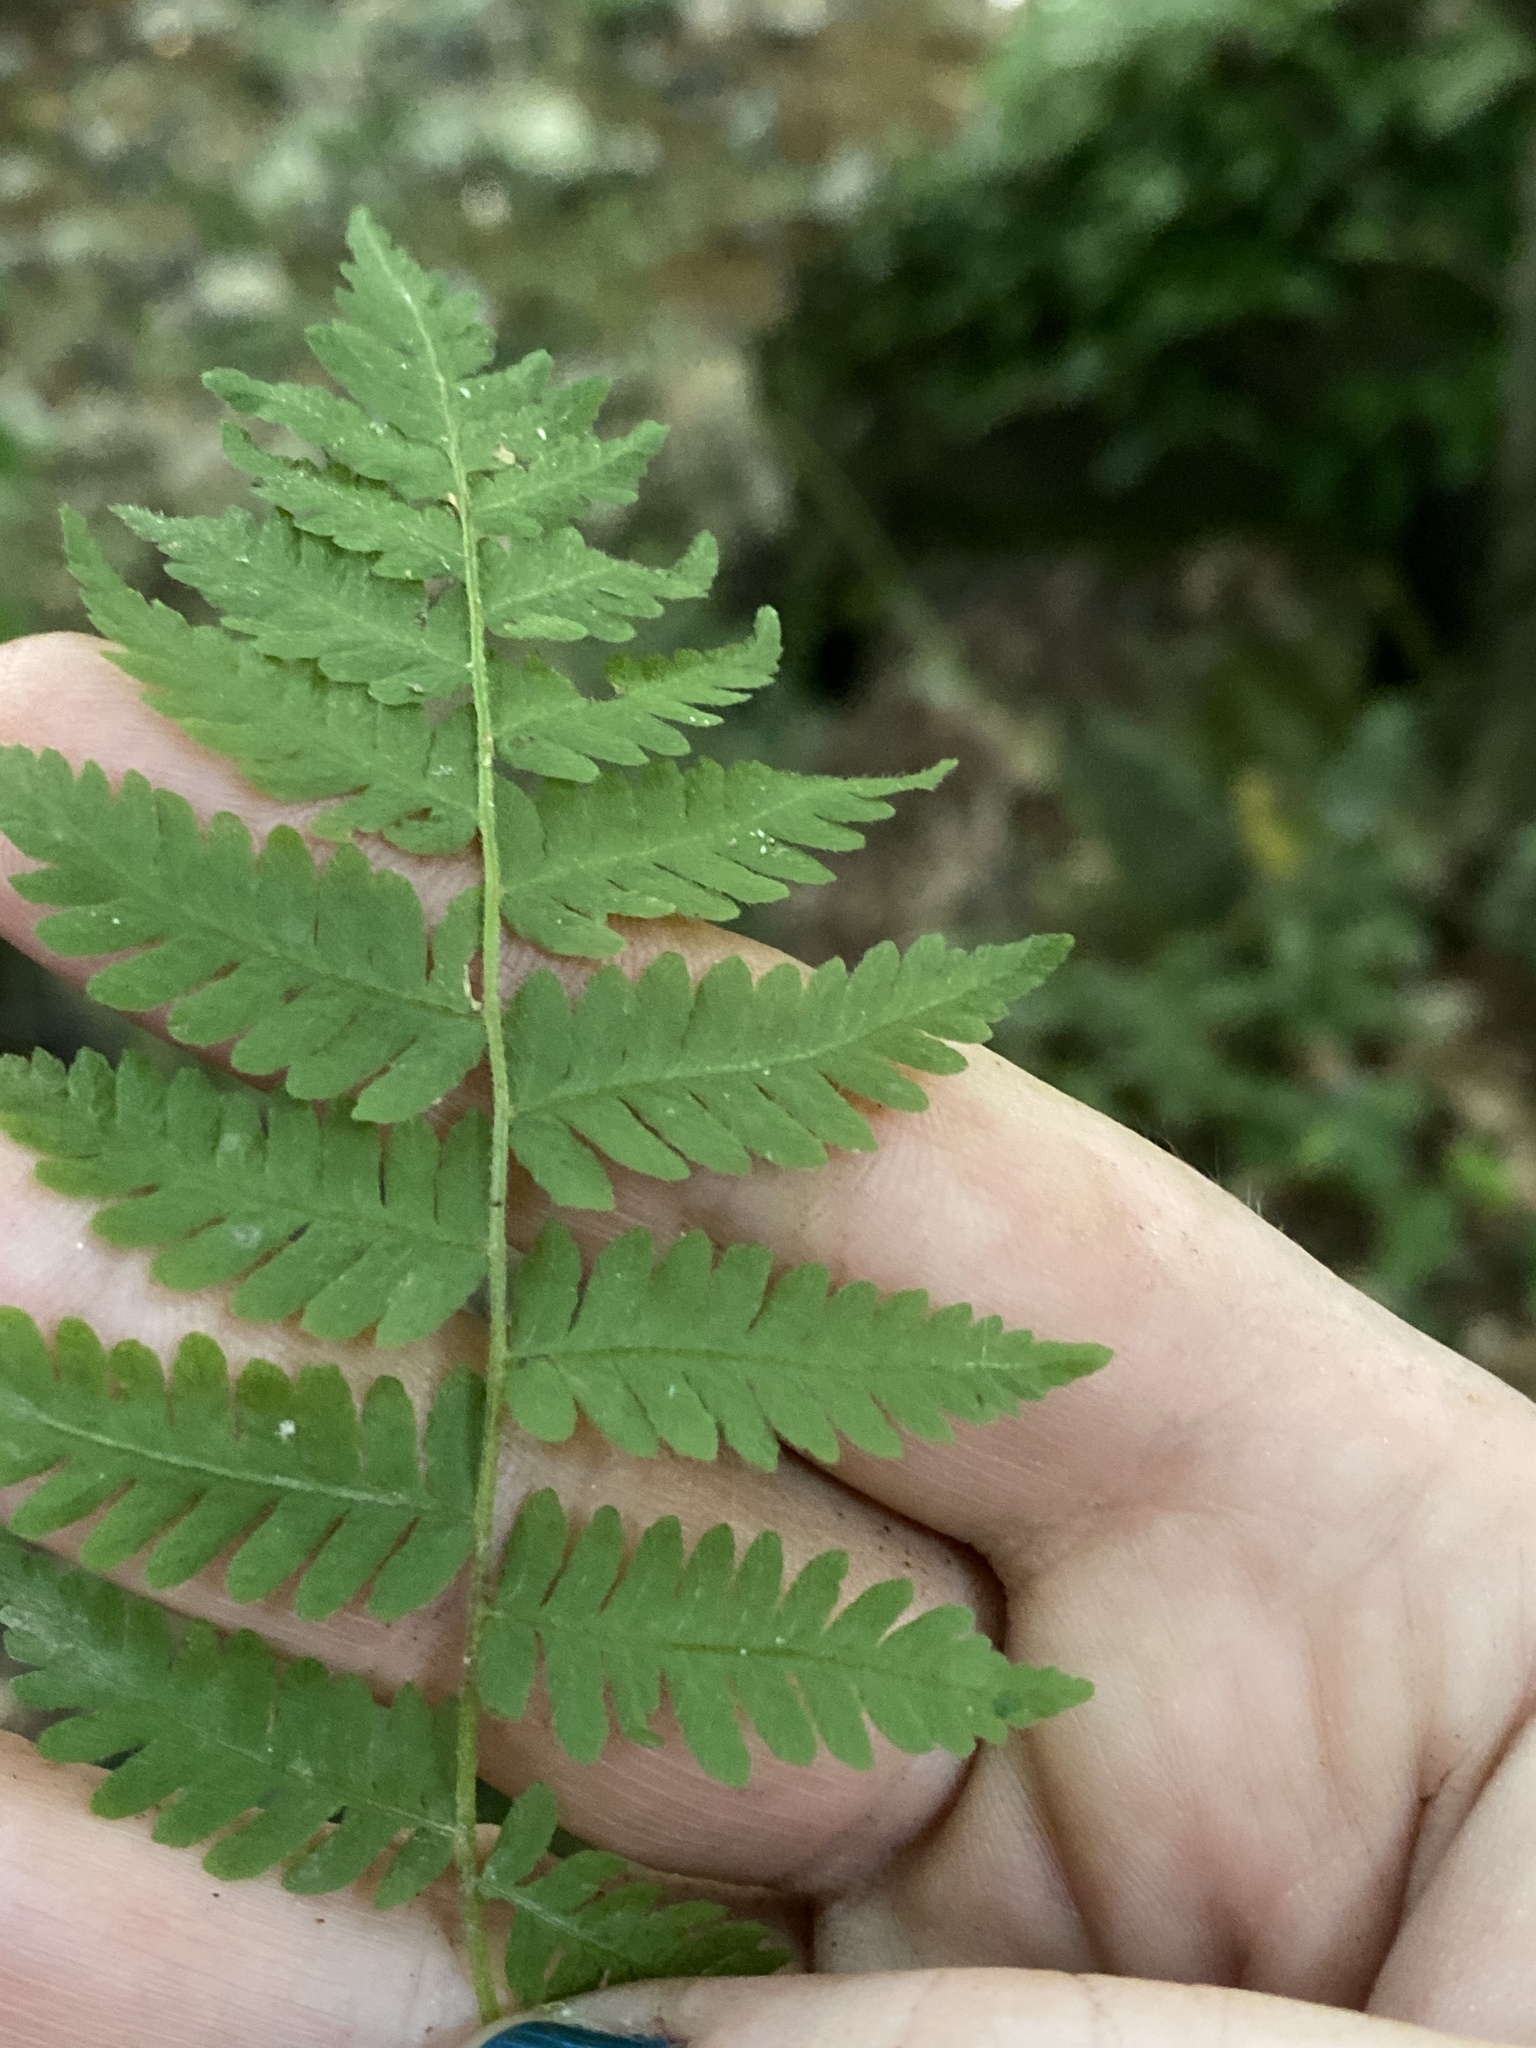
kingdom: Plantae
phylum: Tracheophyta
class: Polypodiopsida
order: Polypodiales
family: Thelypteridaceae
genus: Amauropelta
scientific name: Amauropelta noveboracensis
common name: New york fern
